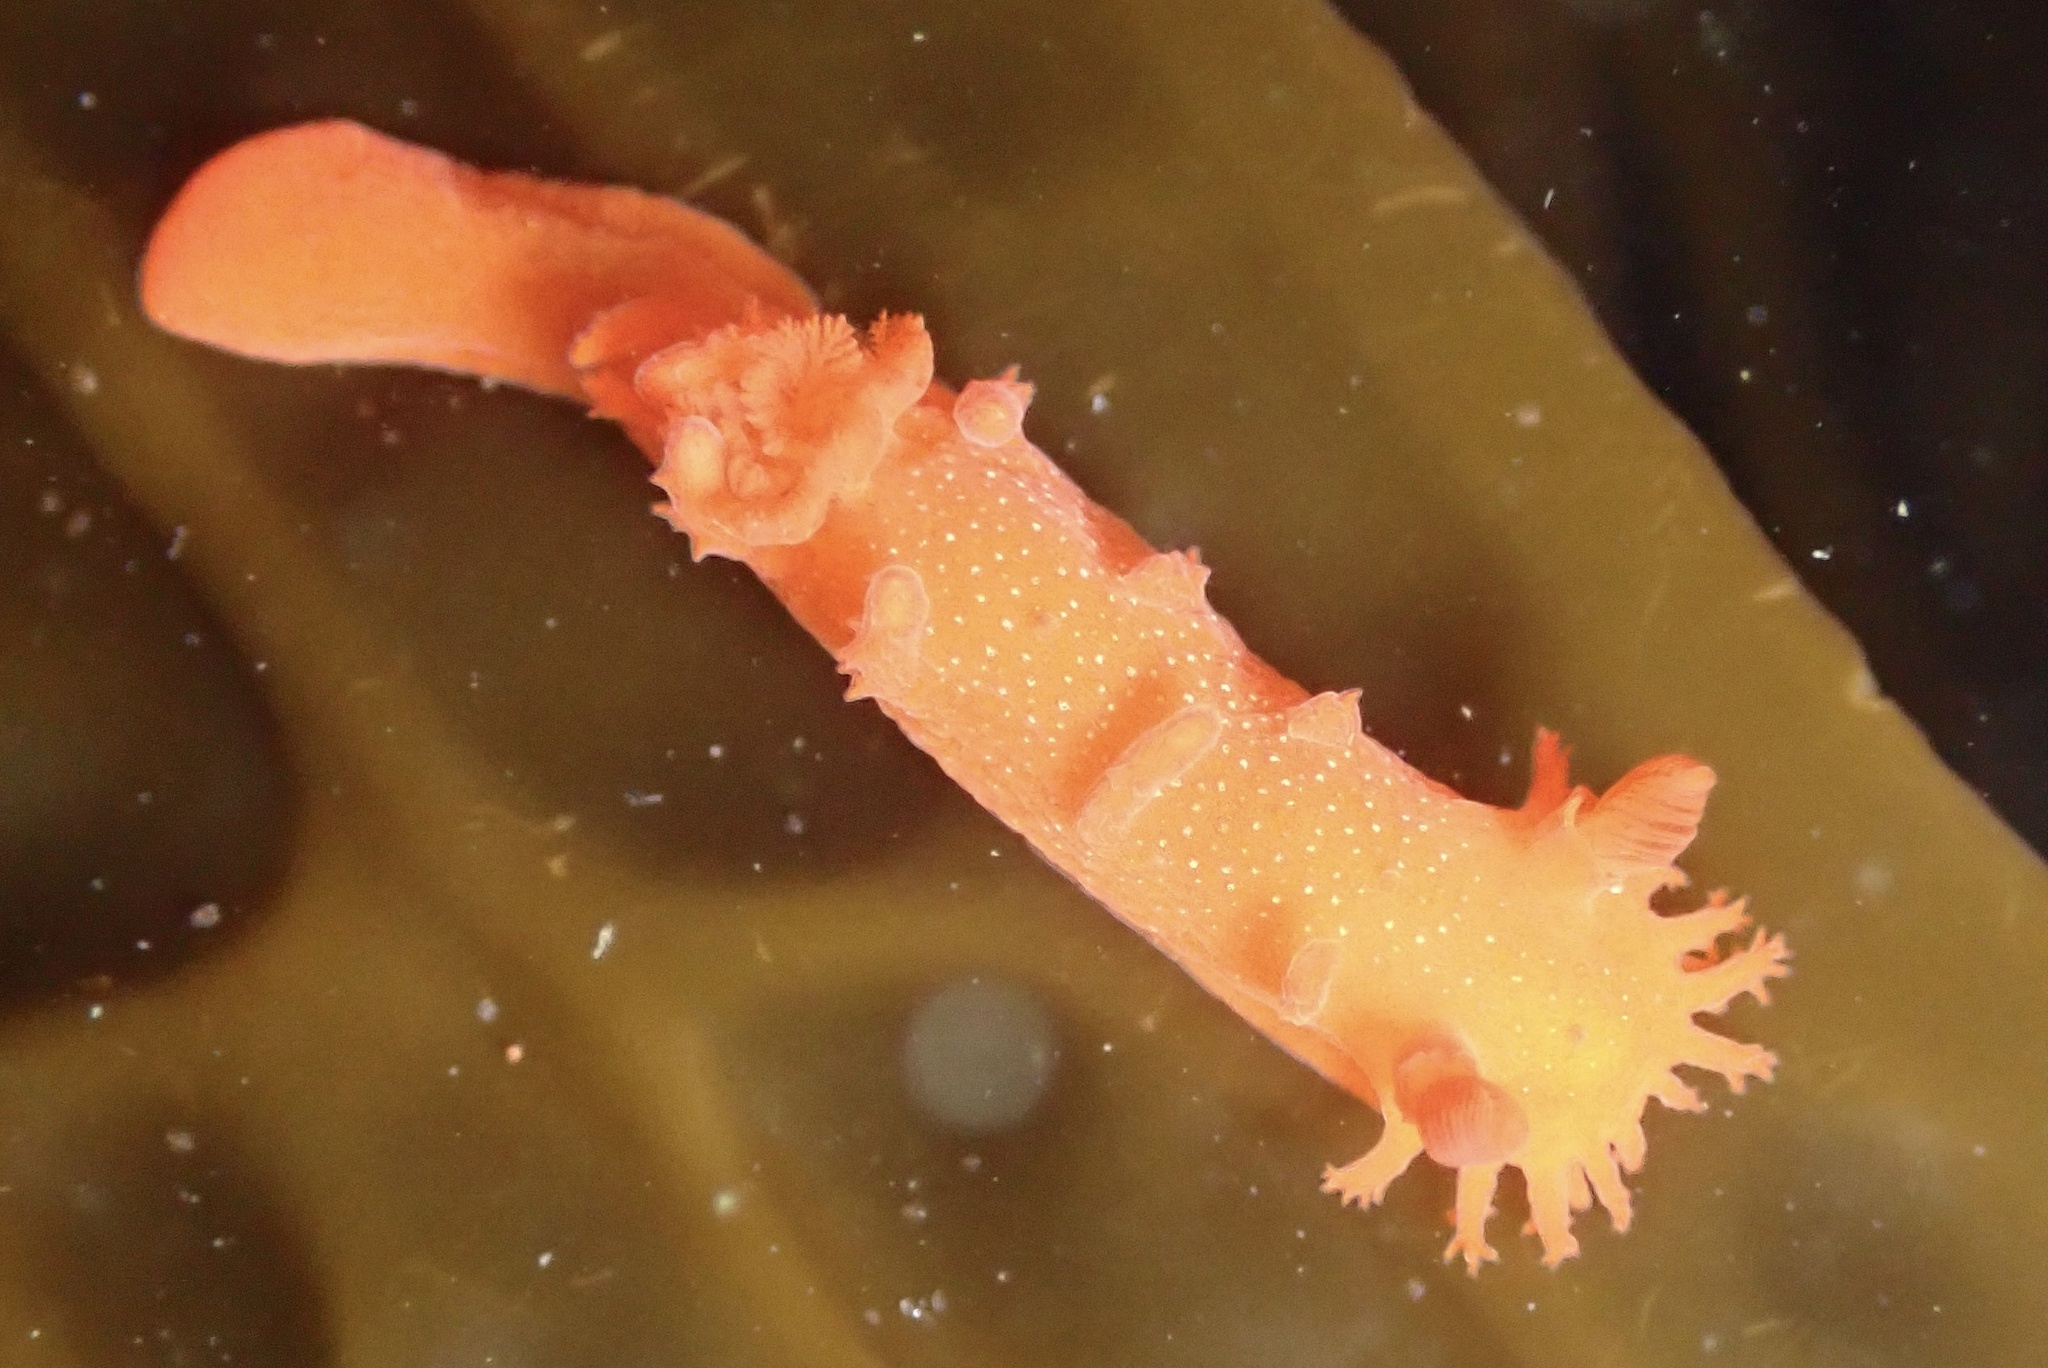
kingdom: Animalia
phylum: Mollusca
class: Gastropoda
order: Nudibranchia
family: Polyceridae
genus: Triopha
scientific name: Triopha maculata
